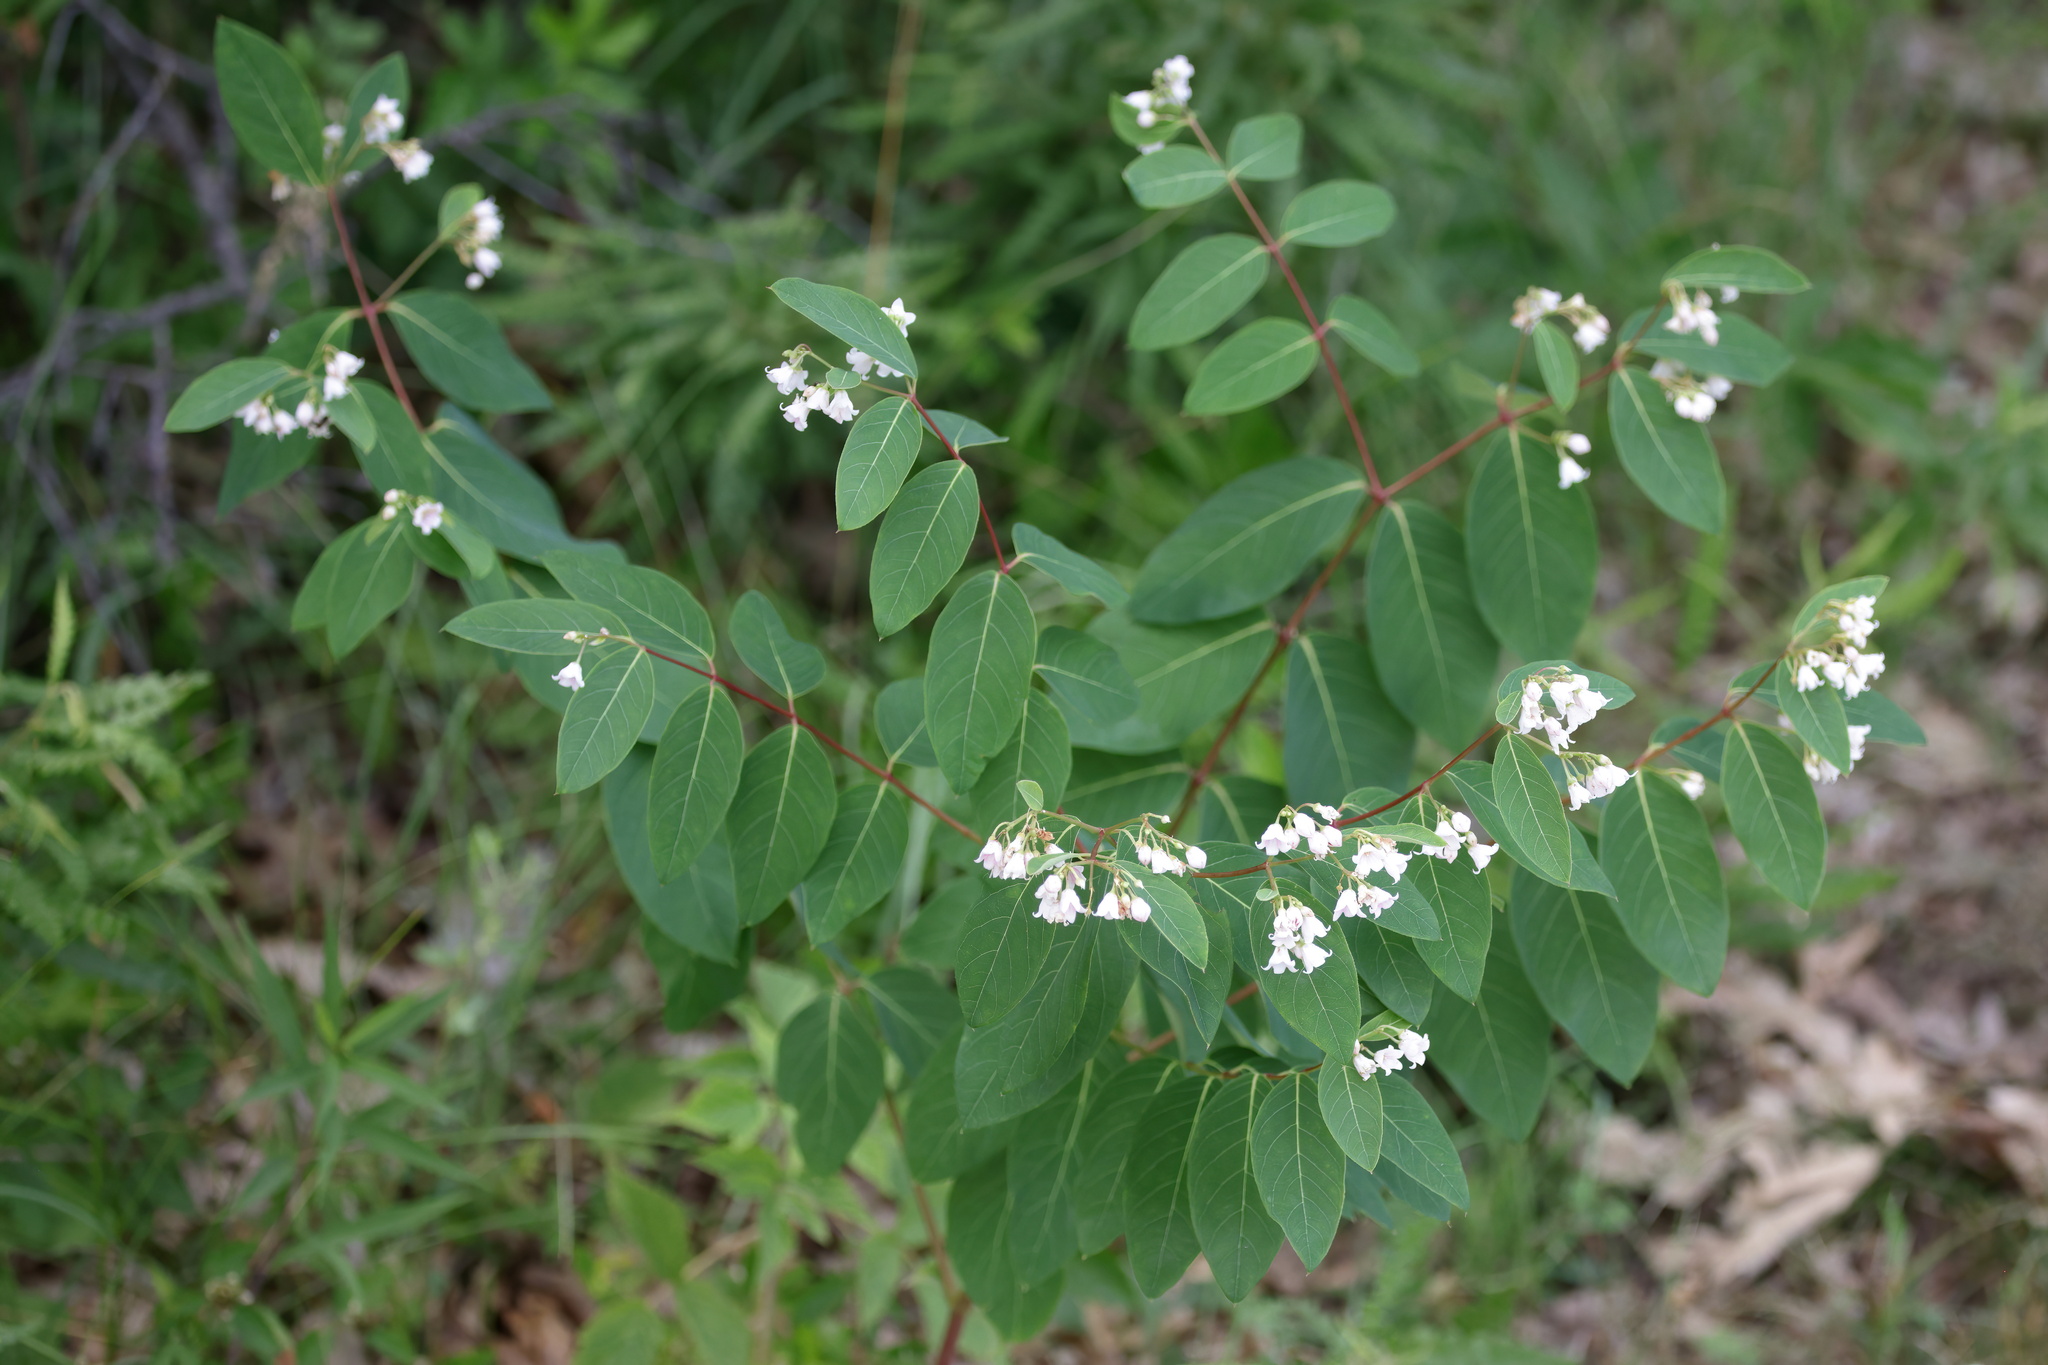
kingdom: Plantae
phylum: Tracheophyta
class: Magnoliopsida
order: Gentianales
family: Apocynaceae
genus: Apocynum
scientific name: Apocynum androsaemifolium
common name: Spreading dogbane
